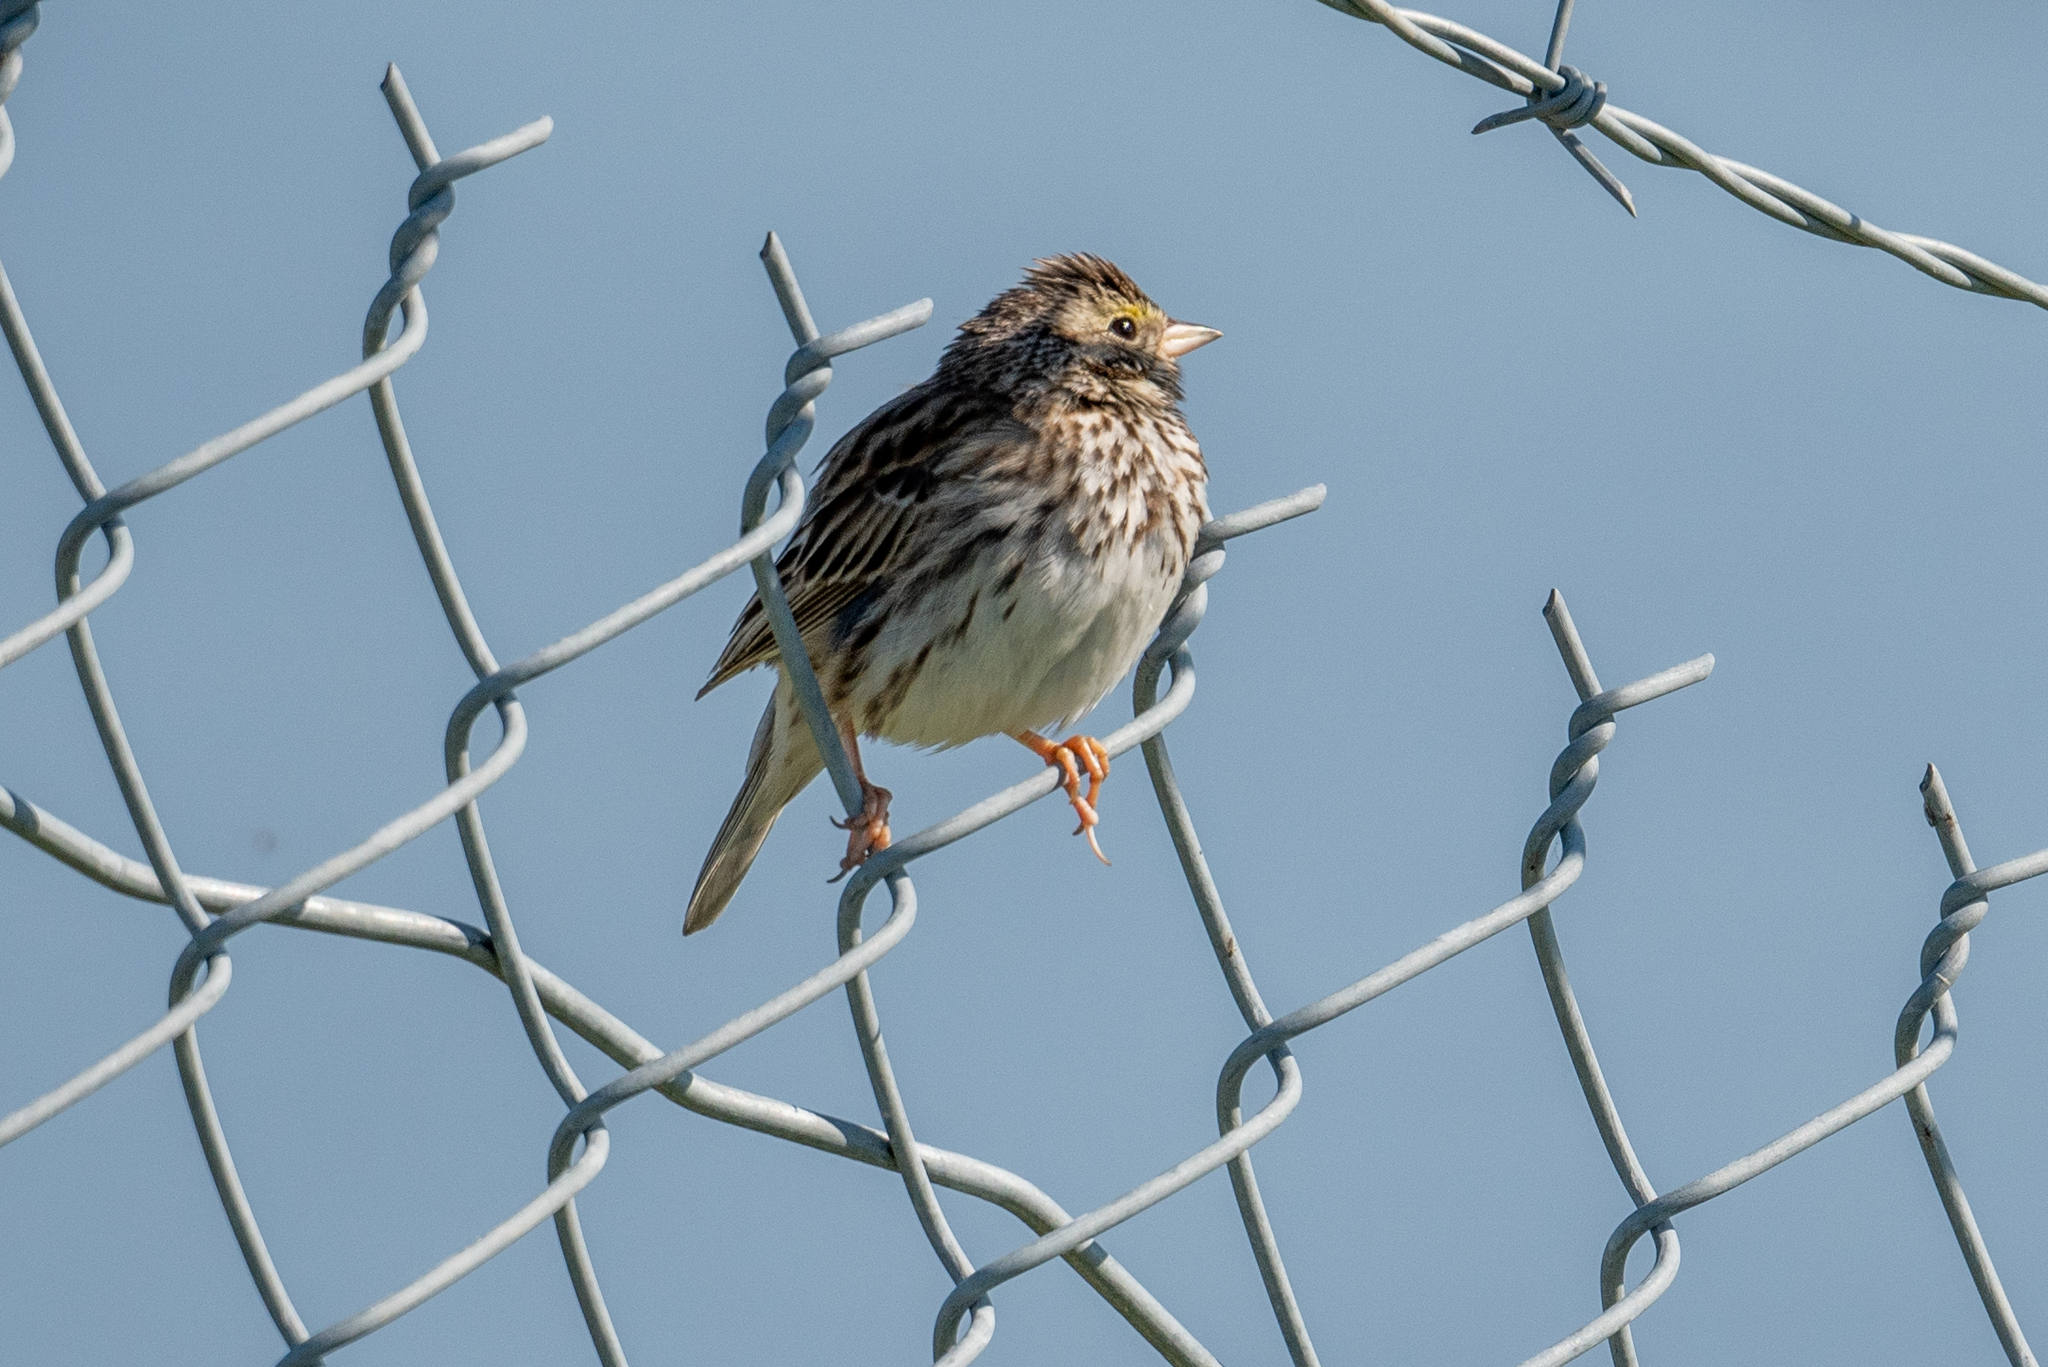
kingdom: Animalia
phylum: Chordata
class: Aves
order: Passeriformes
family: Passerellidae
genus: Passerculus
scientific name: Passerculus sandwichensis
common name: Savannah sparrow
